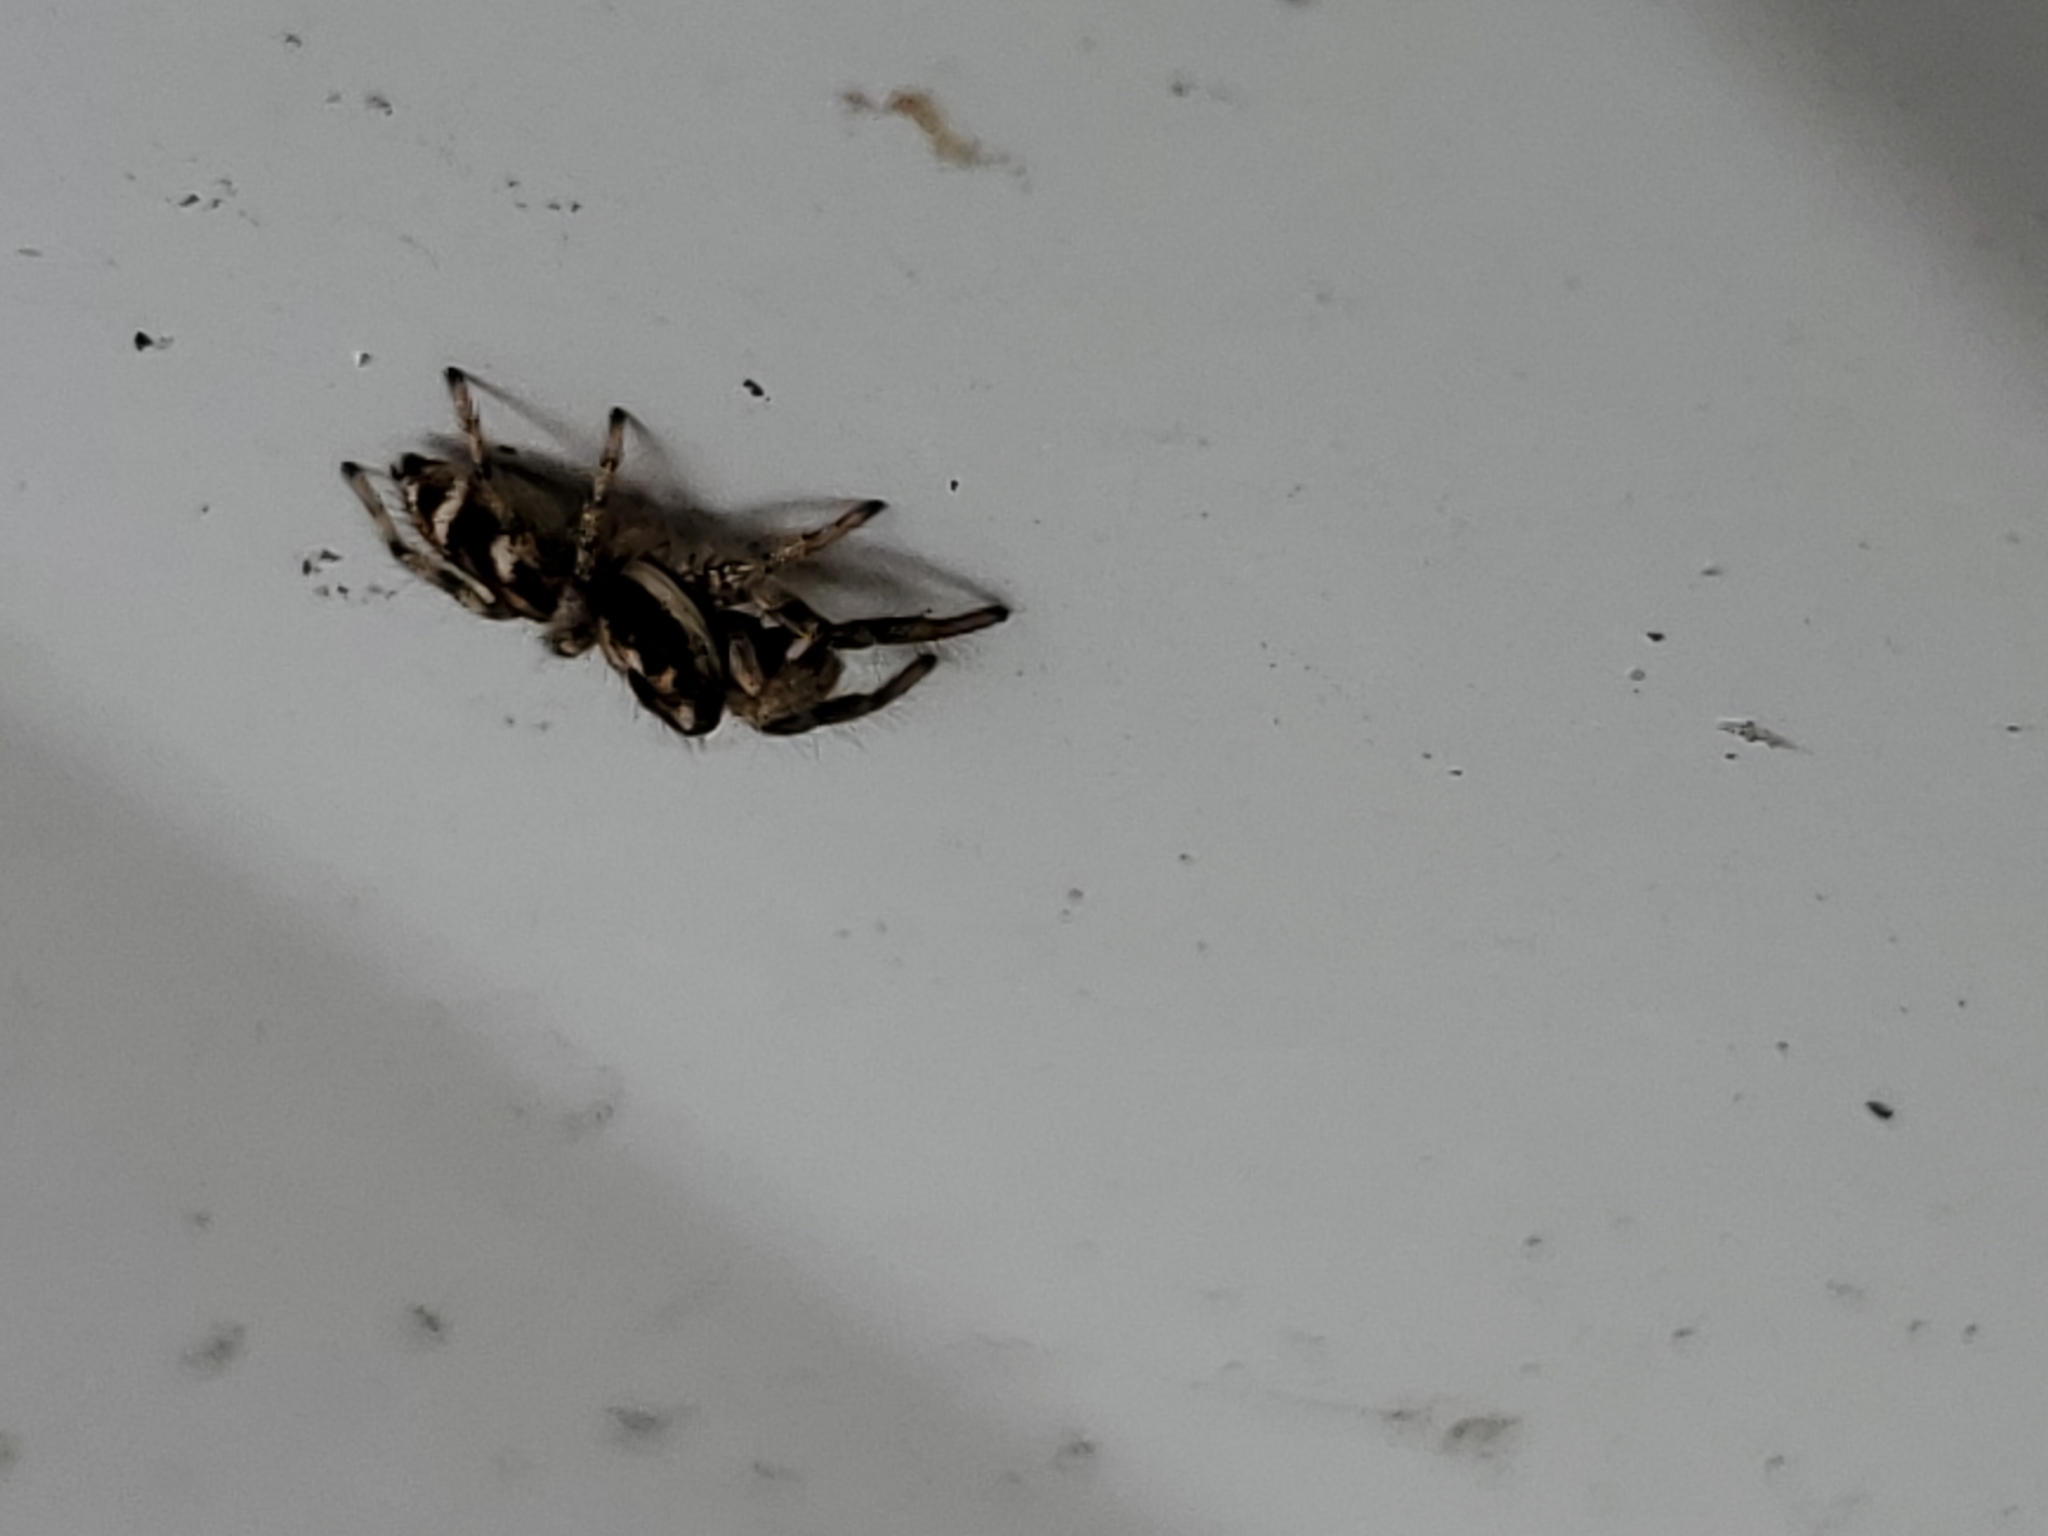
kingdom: Animalia
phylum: Arthropoda
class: Arachnida
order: Araneae
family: Salticidae
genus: Salticus
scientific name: Salticus scenicus
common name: Zebra jumper
